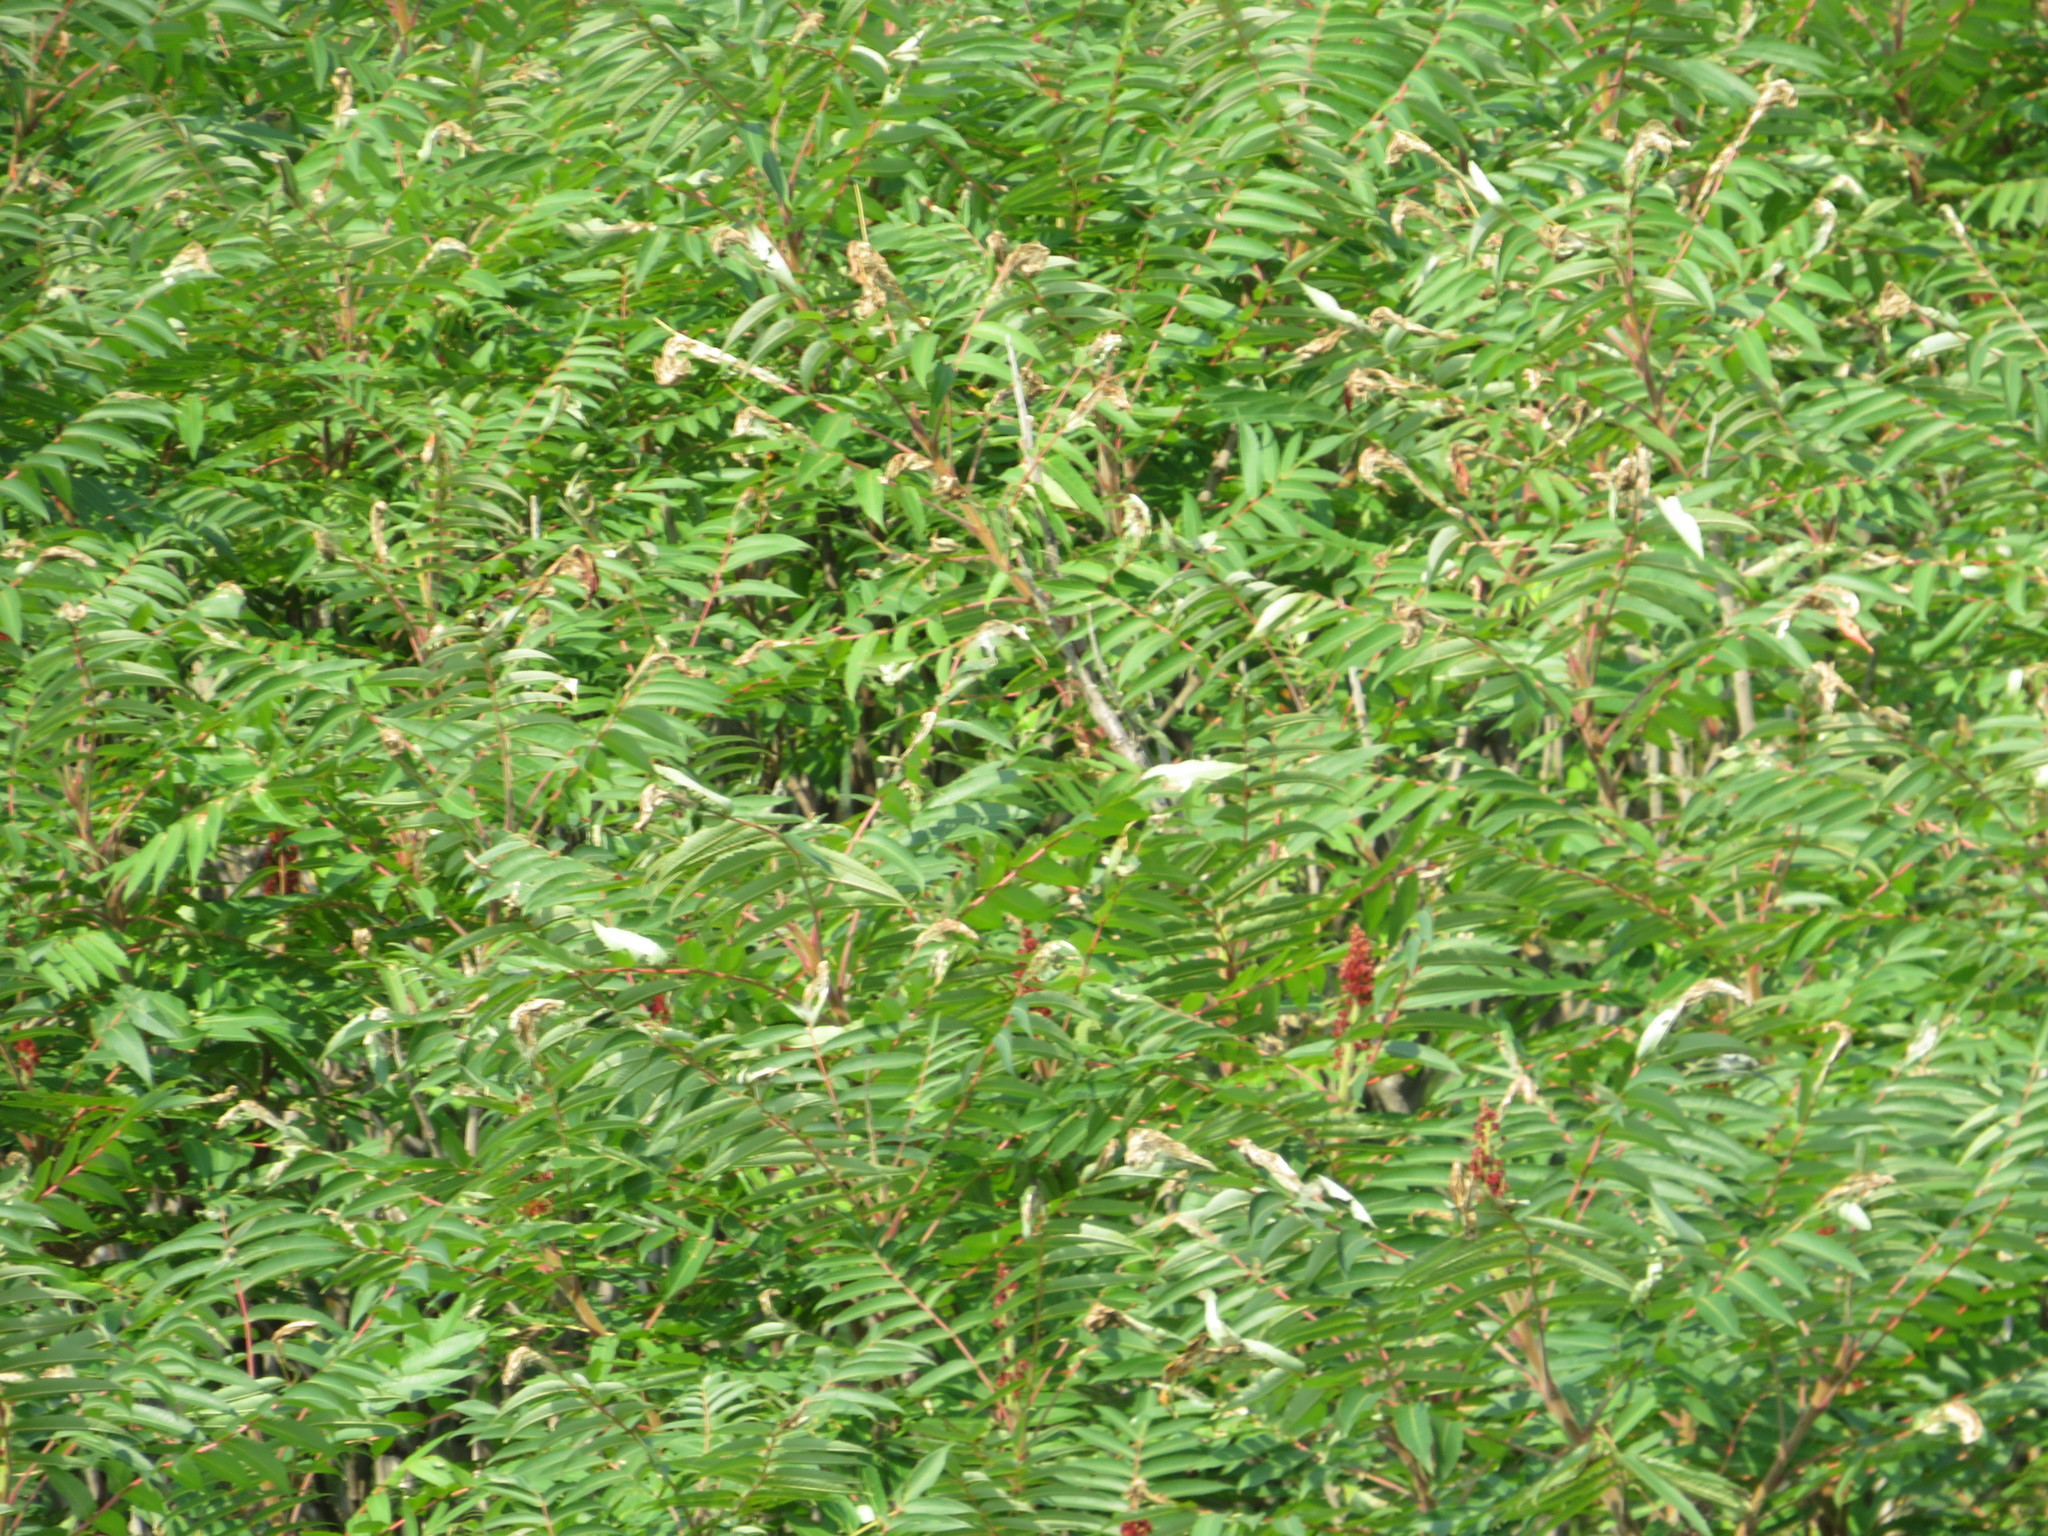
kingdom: Plantae
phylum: Tracheophyta
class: Magnoliopsida
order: Sapindales
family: Anacardiaceae
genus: Rhus
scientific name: Rhus typhina
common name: Staghorn sumac
